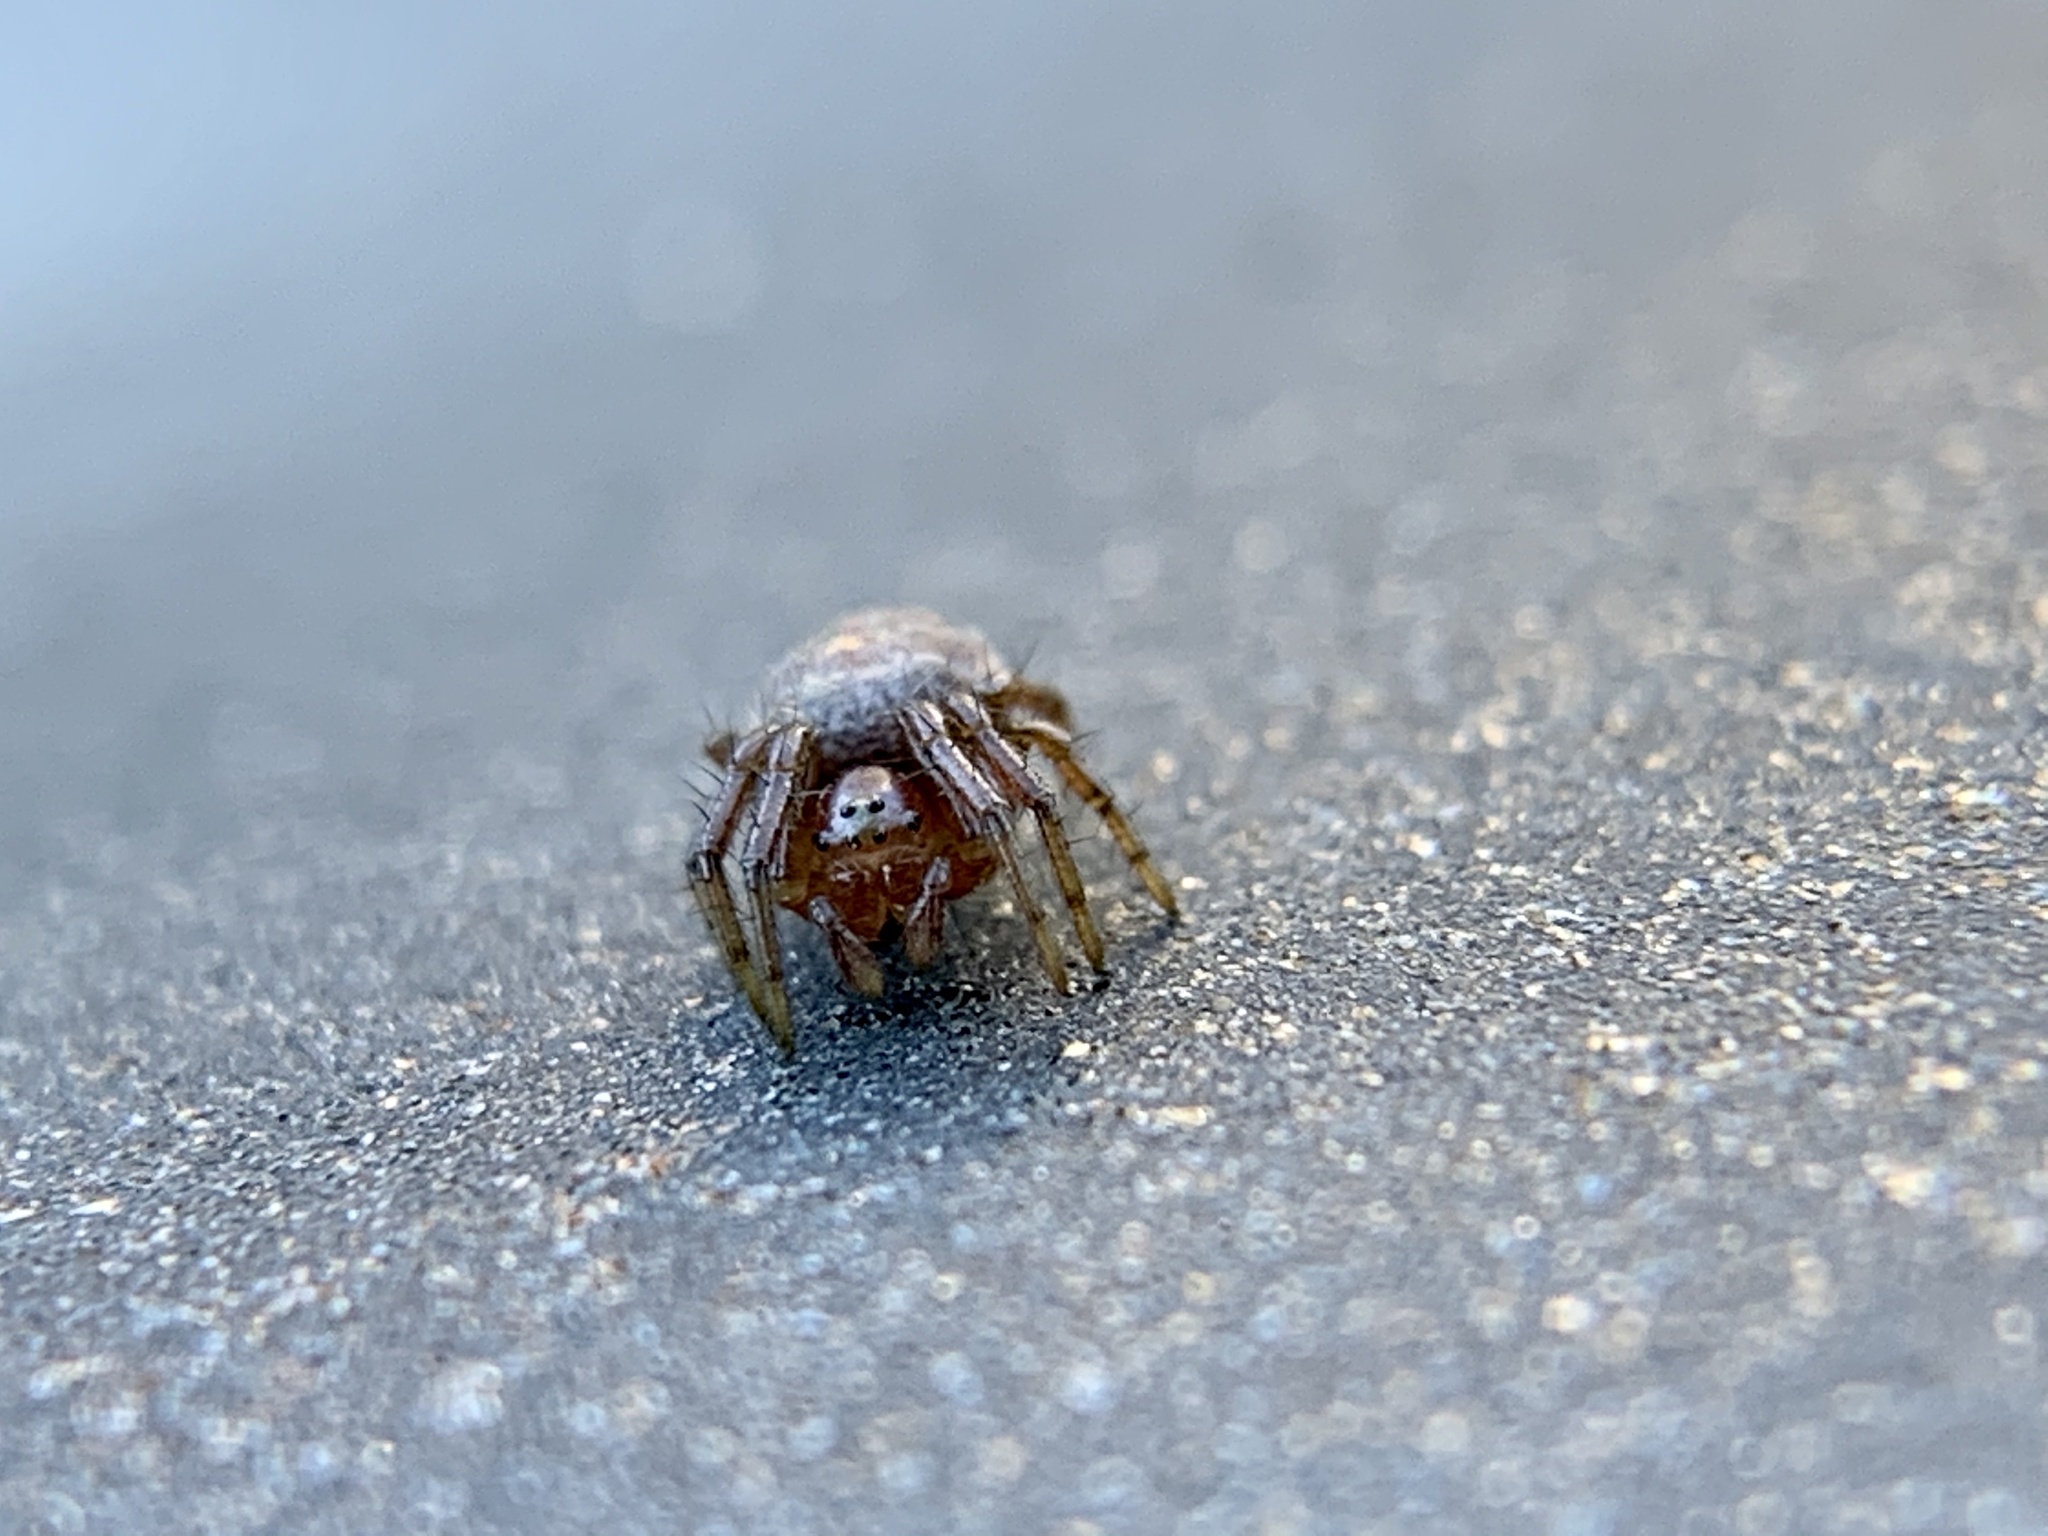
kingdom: Animalia
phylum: Arthropoda
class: Arachnida
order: Araneae
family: Araneidae
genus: Araniella
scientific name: Araniella displicata
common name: Sixspotted orb weaver
